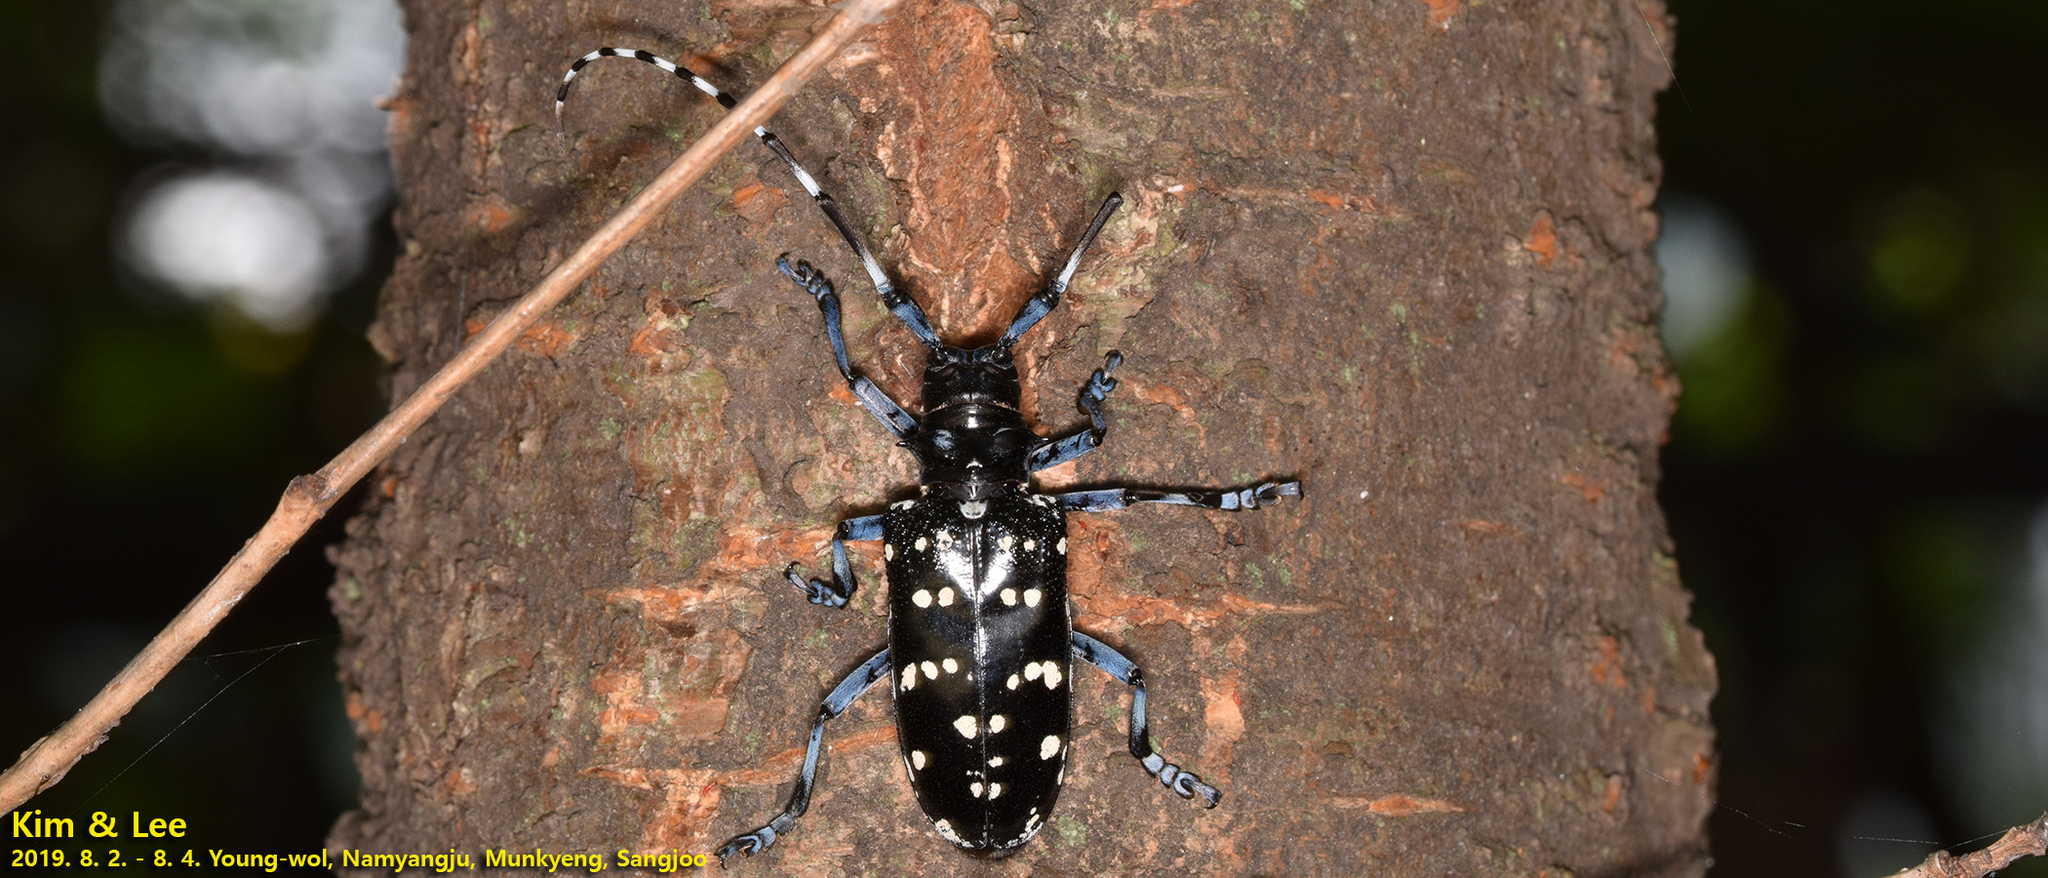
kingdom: Animalia
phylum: Arthropoda
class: Insecta
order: Coleoptera
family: Cerambycidae
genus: Anoplophora
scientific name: Anoplophora chinensis
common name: Citrus longhorned beetle
